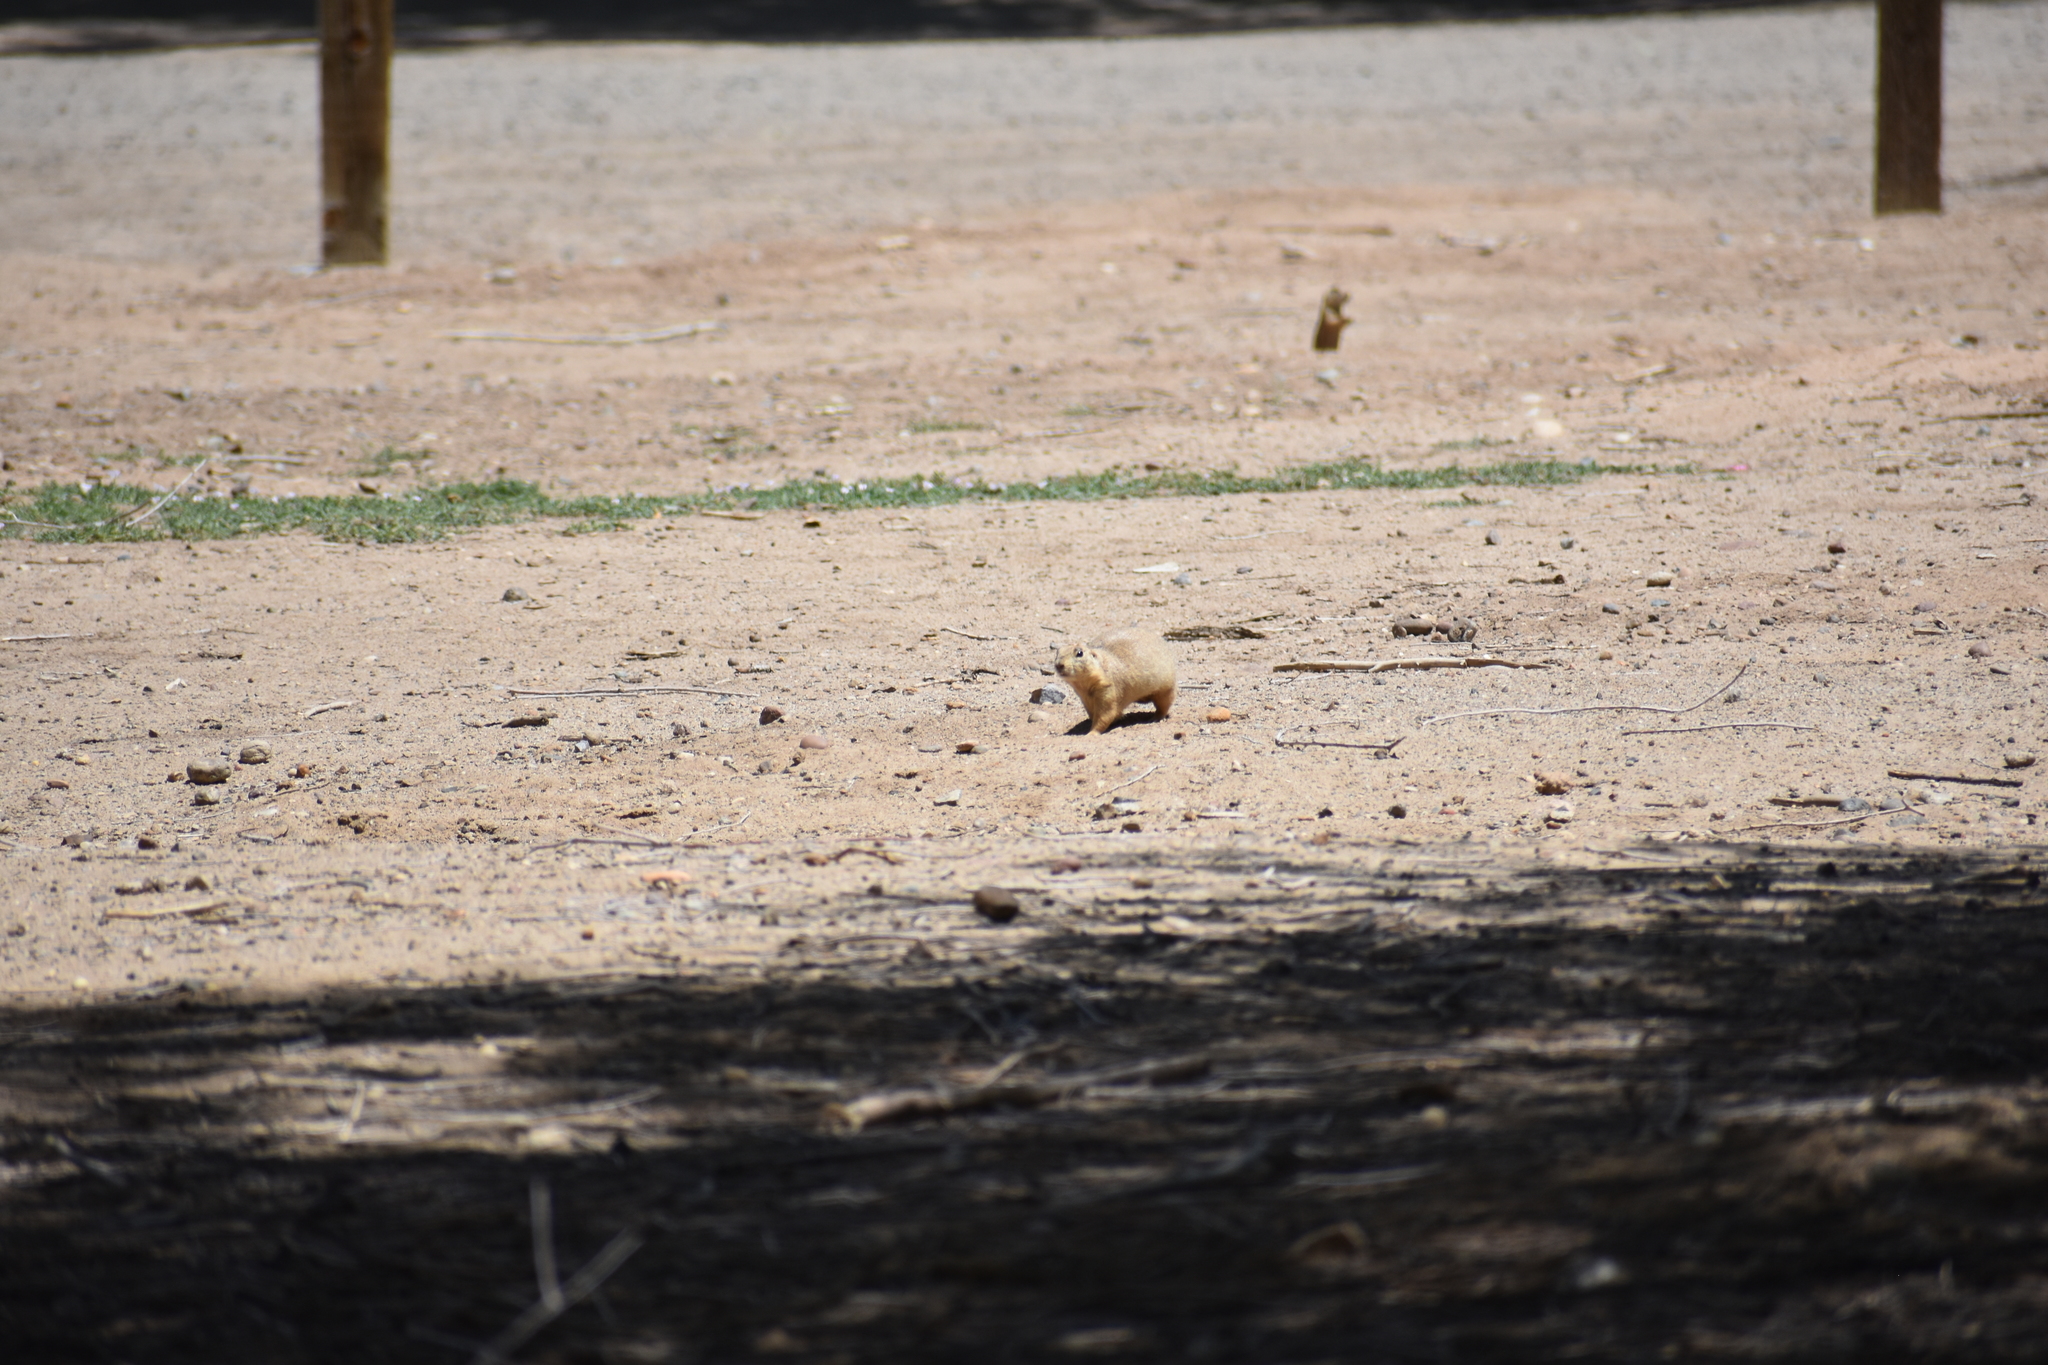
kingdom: Animalia
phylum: Chordata
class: Mammalia
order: Rodentia
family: Sciuridae
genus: Cynomys
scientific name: Cynomys gunnisoni
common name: Gunnison's prairie dog
